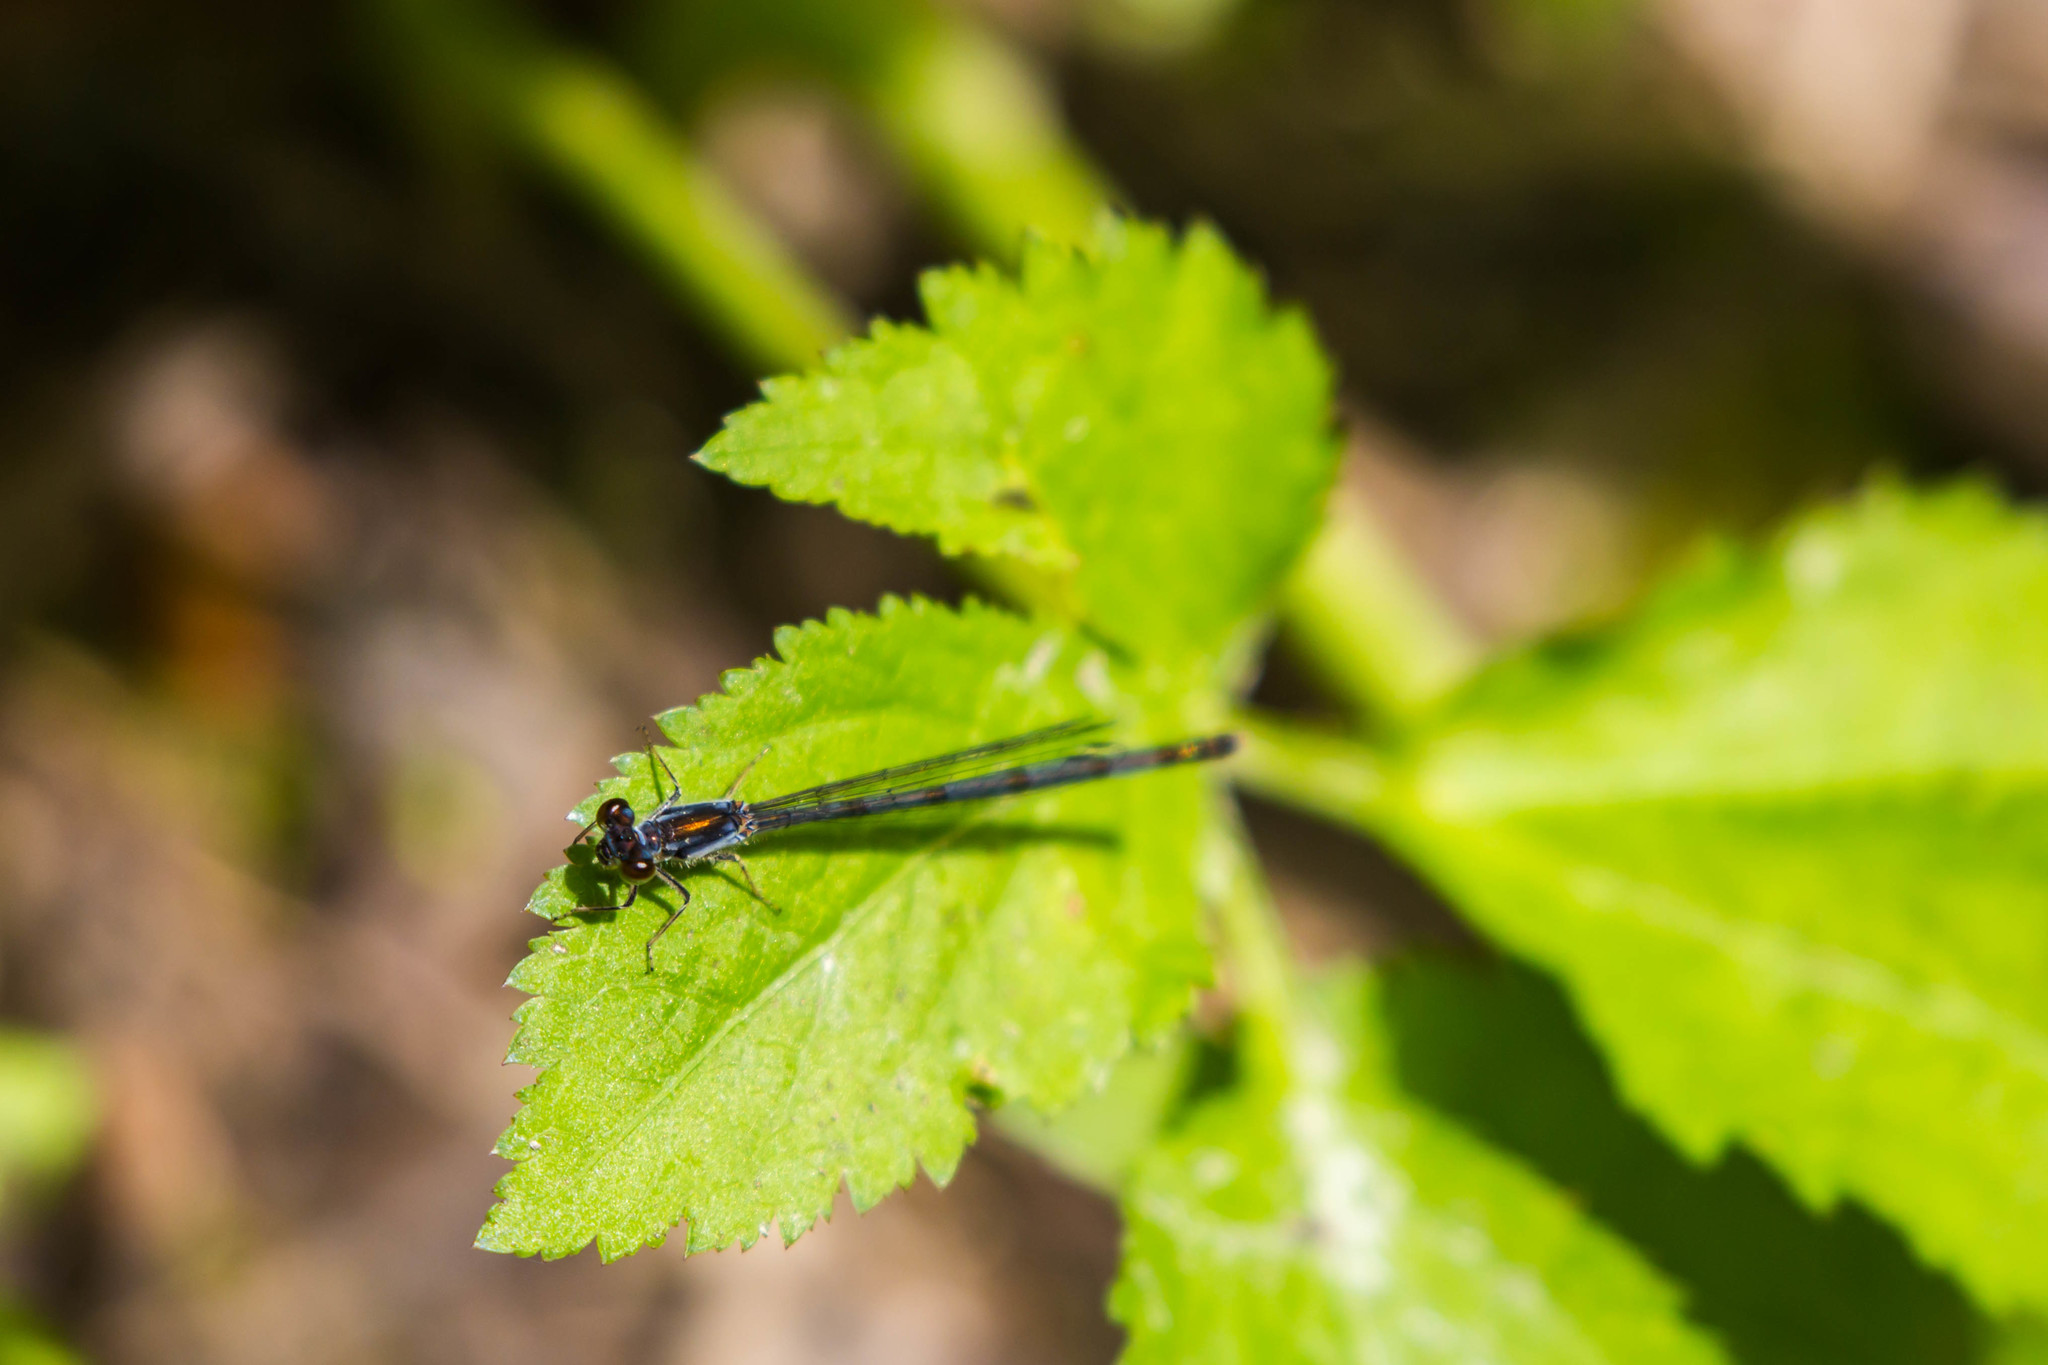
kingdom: Animalia
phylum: Arthropoda
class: Insecta
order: Odonata
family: Coenagrionidae
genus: Ischnura
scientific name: Ischnura posita
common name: Fragile forktail
